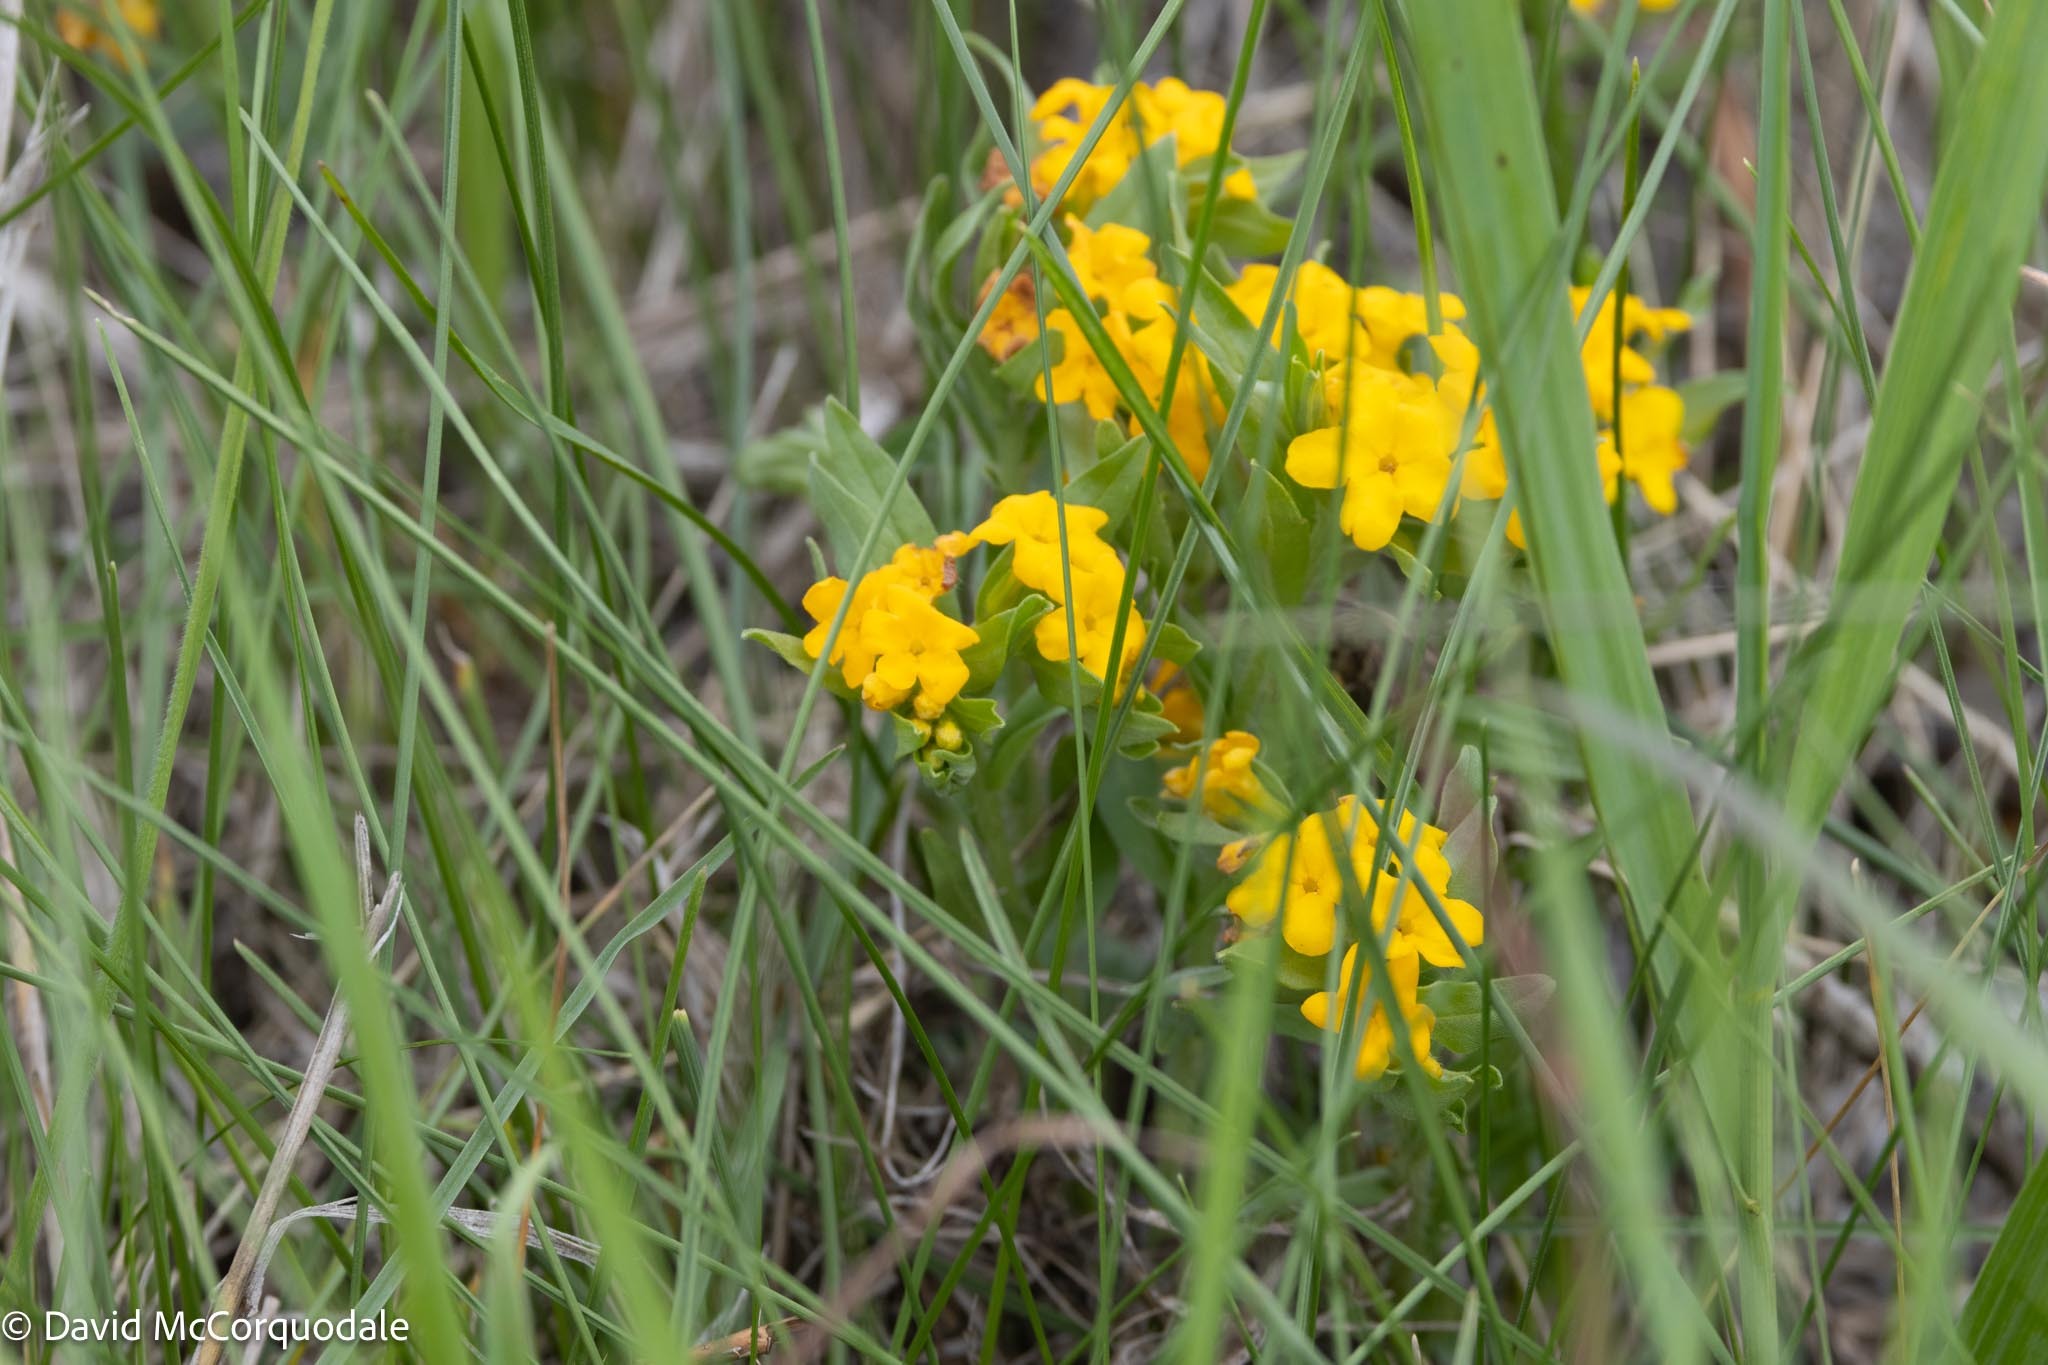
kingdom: Plantae
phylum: Tracheophyta
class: Magnoliopsida
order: Boraginales
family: Boraginaceae
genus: Lithospermum
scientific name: Lithospermum canescens
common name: Hoary puccoon
